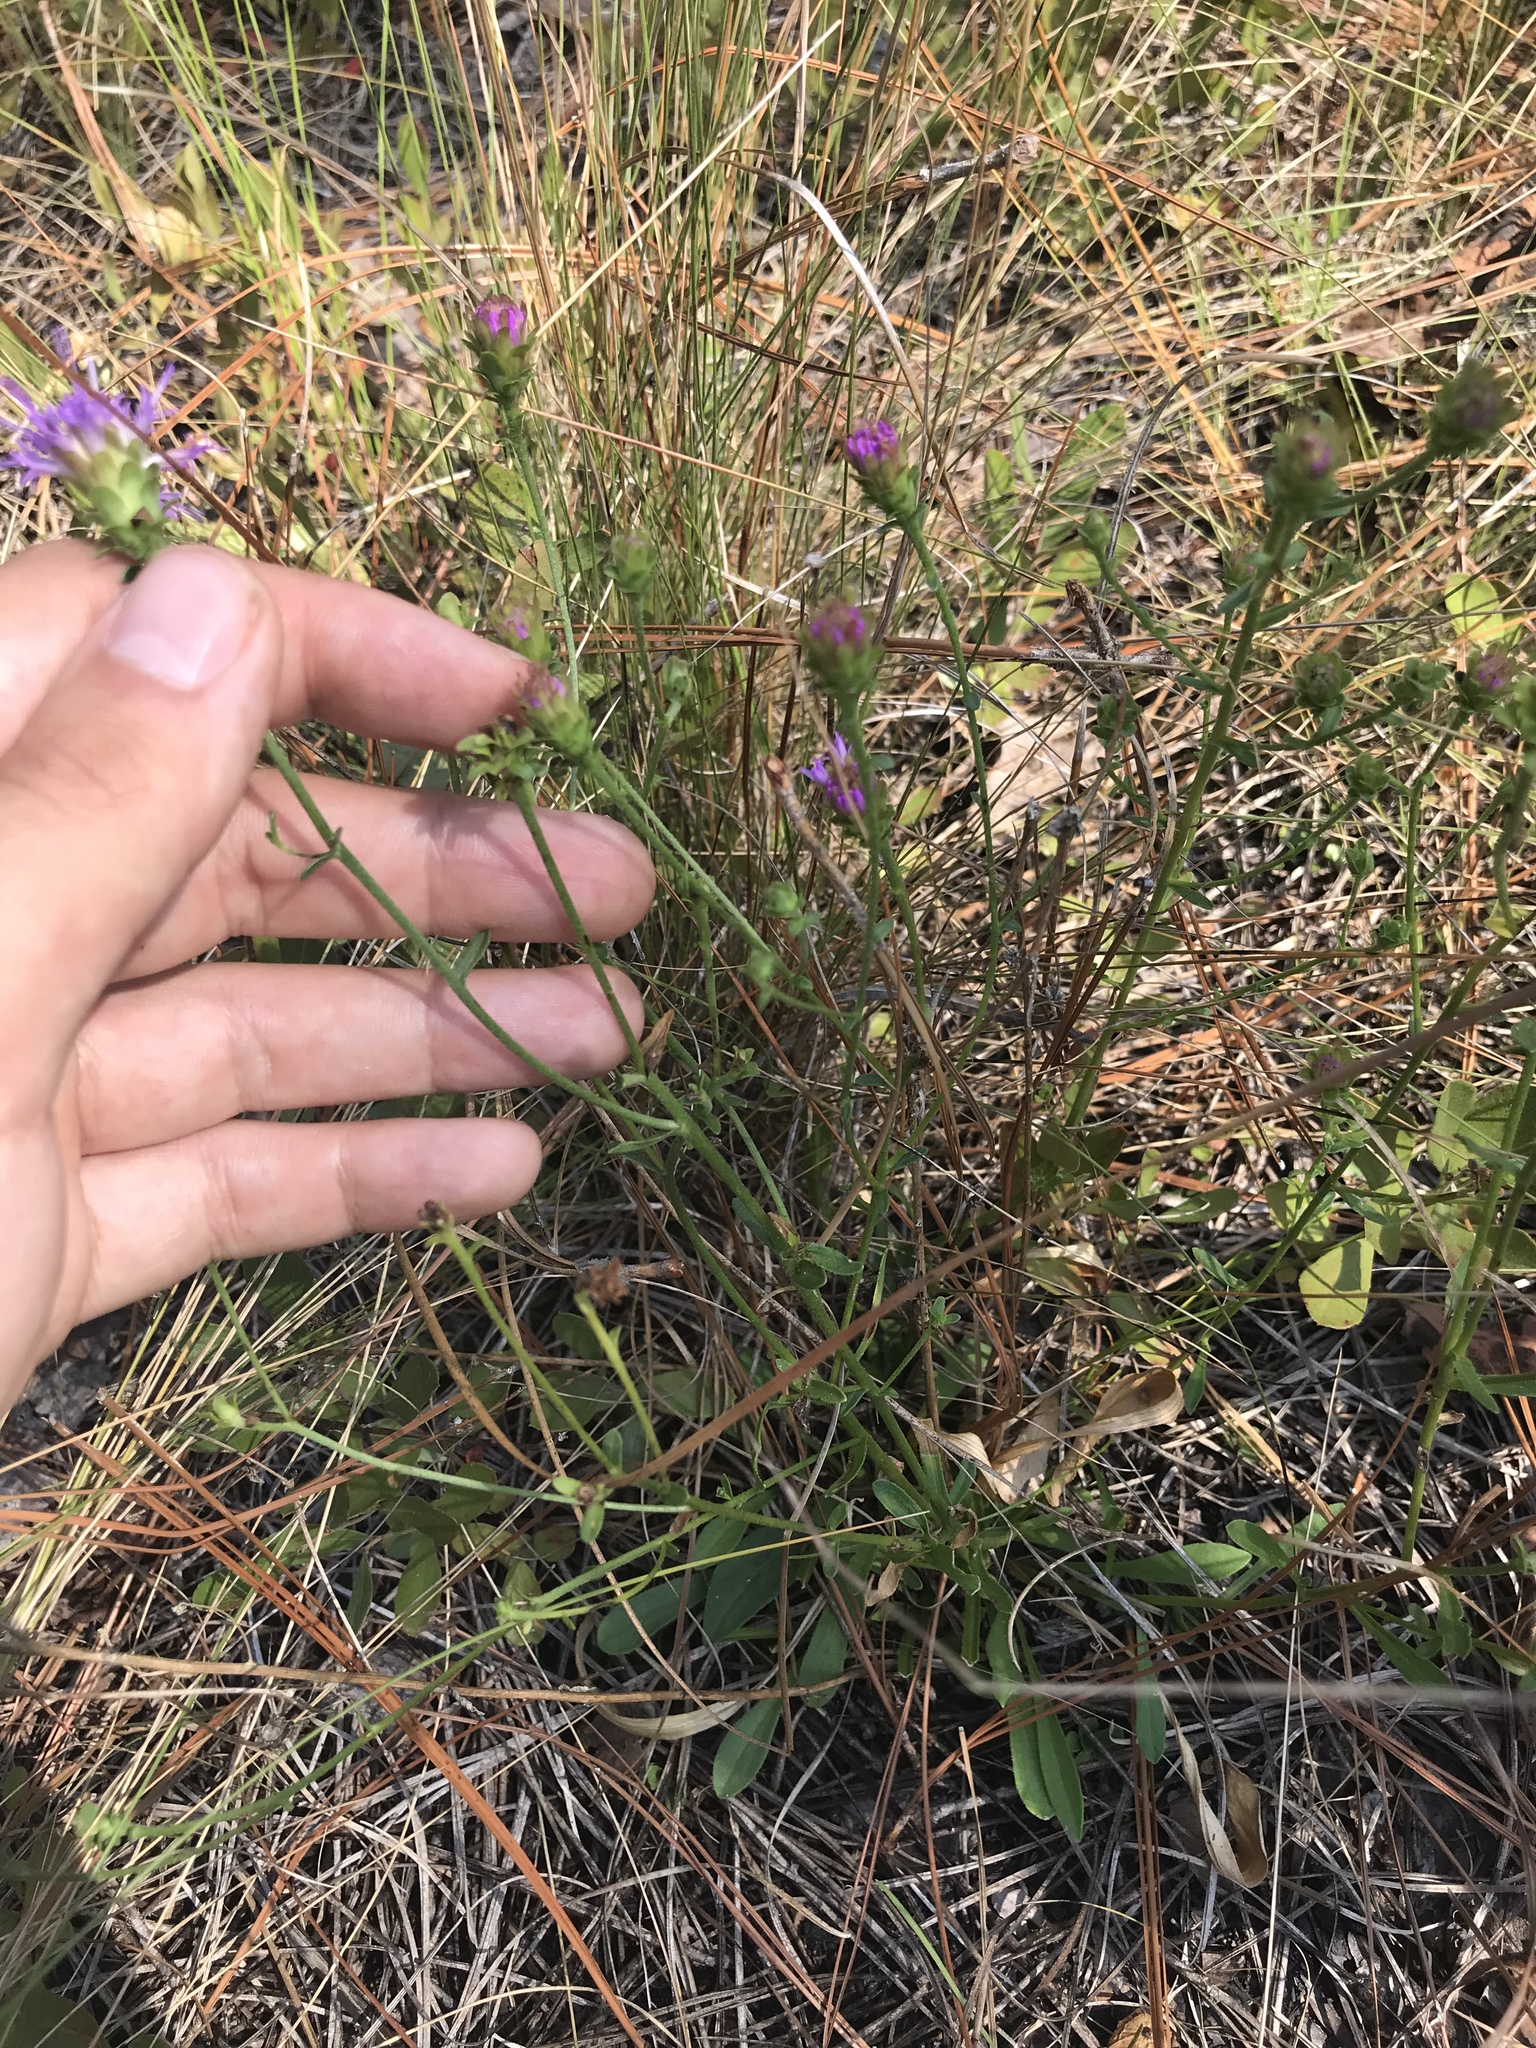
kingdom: Plantae
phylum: Tracheophyta
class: Magnoliopsida
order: Asterales
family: Asteraceae
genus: Carphephorus
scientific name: Carphephorus bellidifolius
